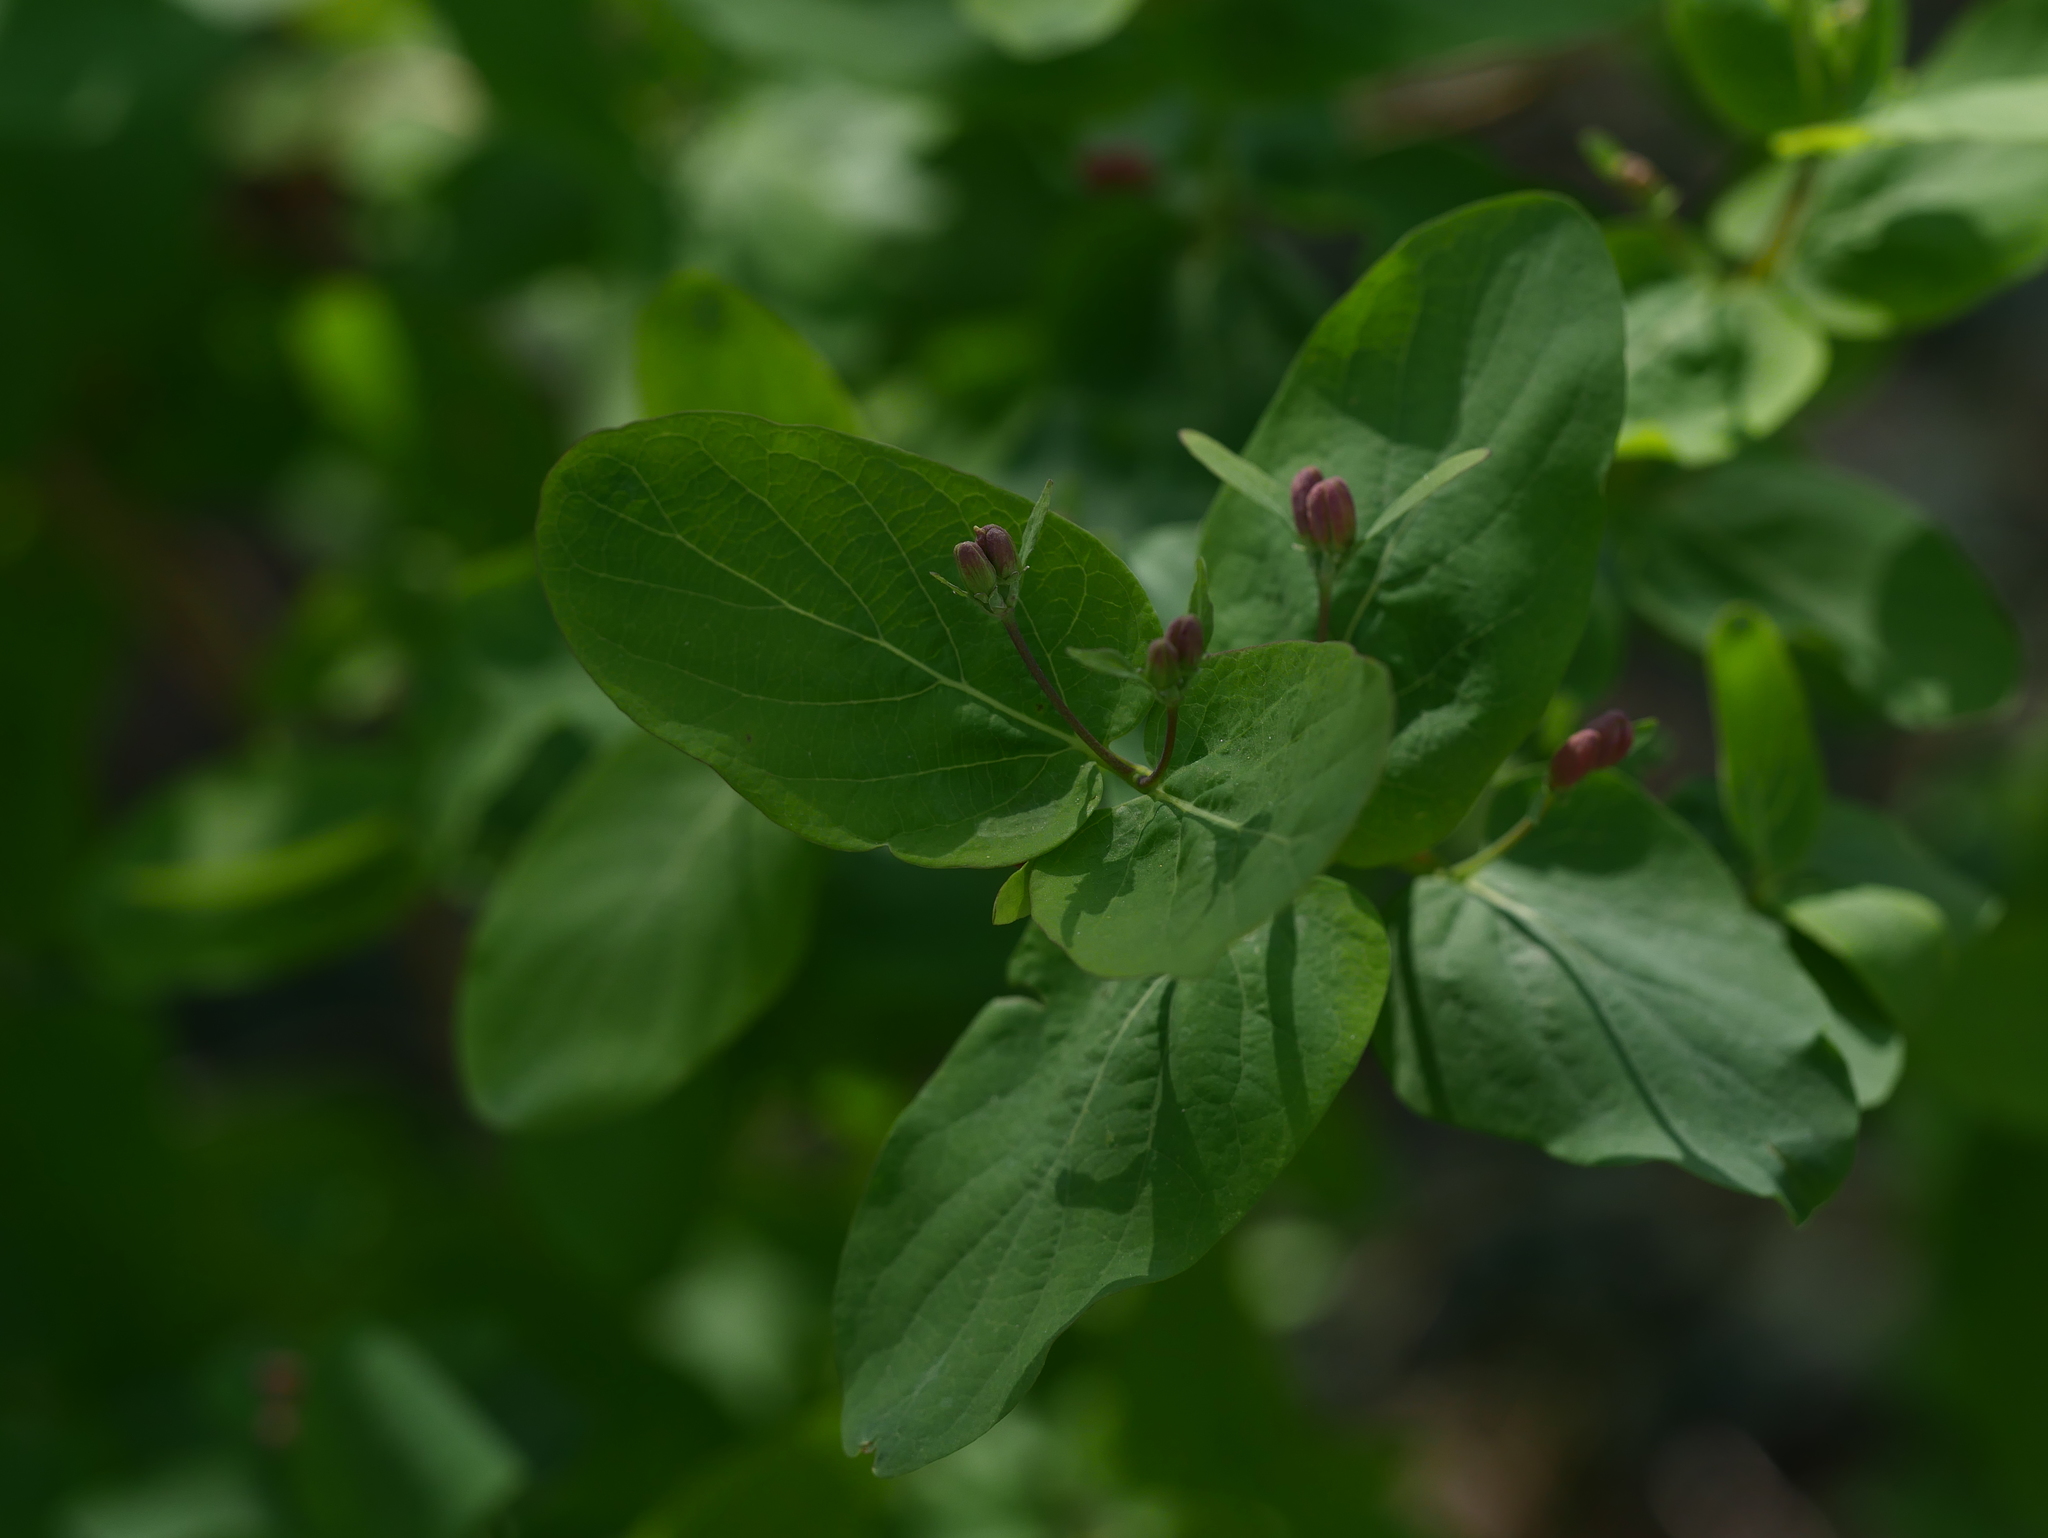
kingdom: Plantae
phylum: Tracheophyta
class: Magnoliopsida
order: Dipsacales
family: Caprifoliaceae
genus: Lonicera
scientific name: Lonicera tatarica
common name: Tatarian honeysuckle
